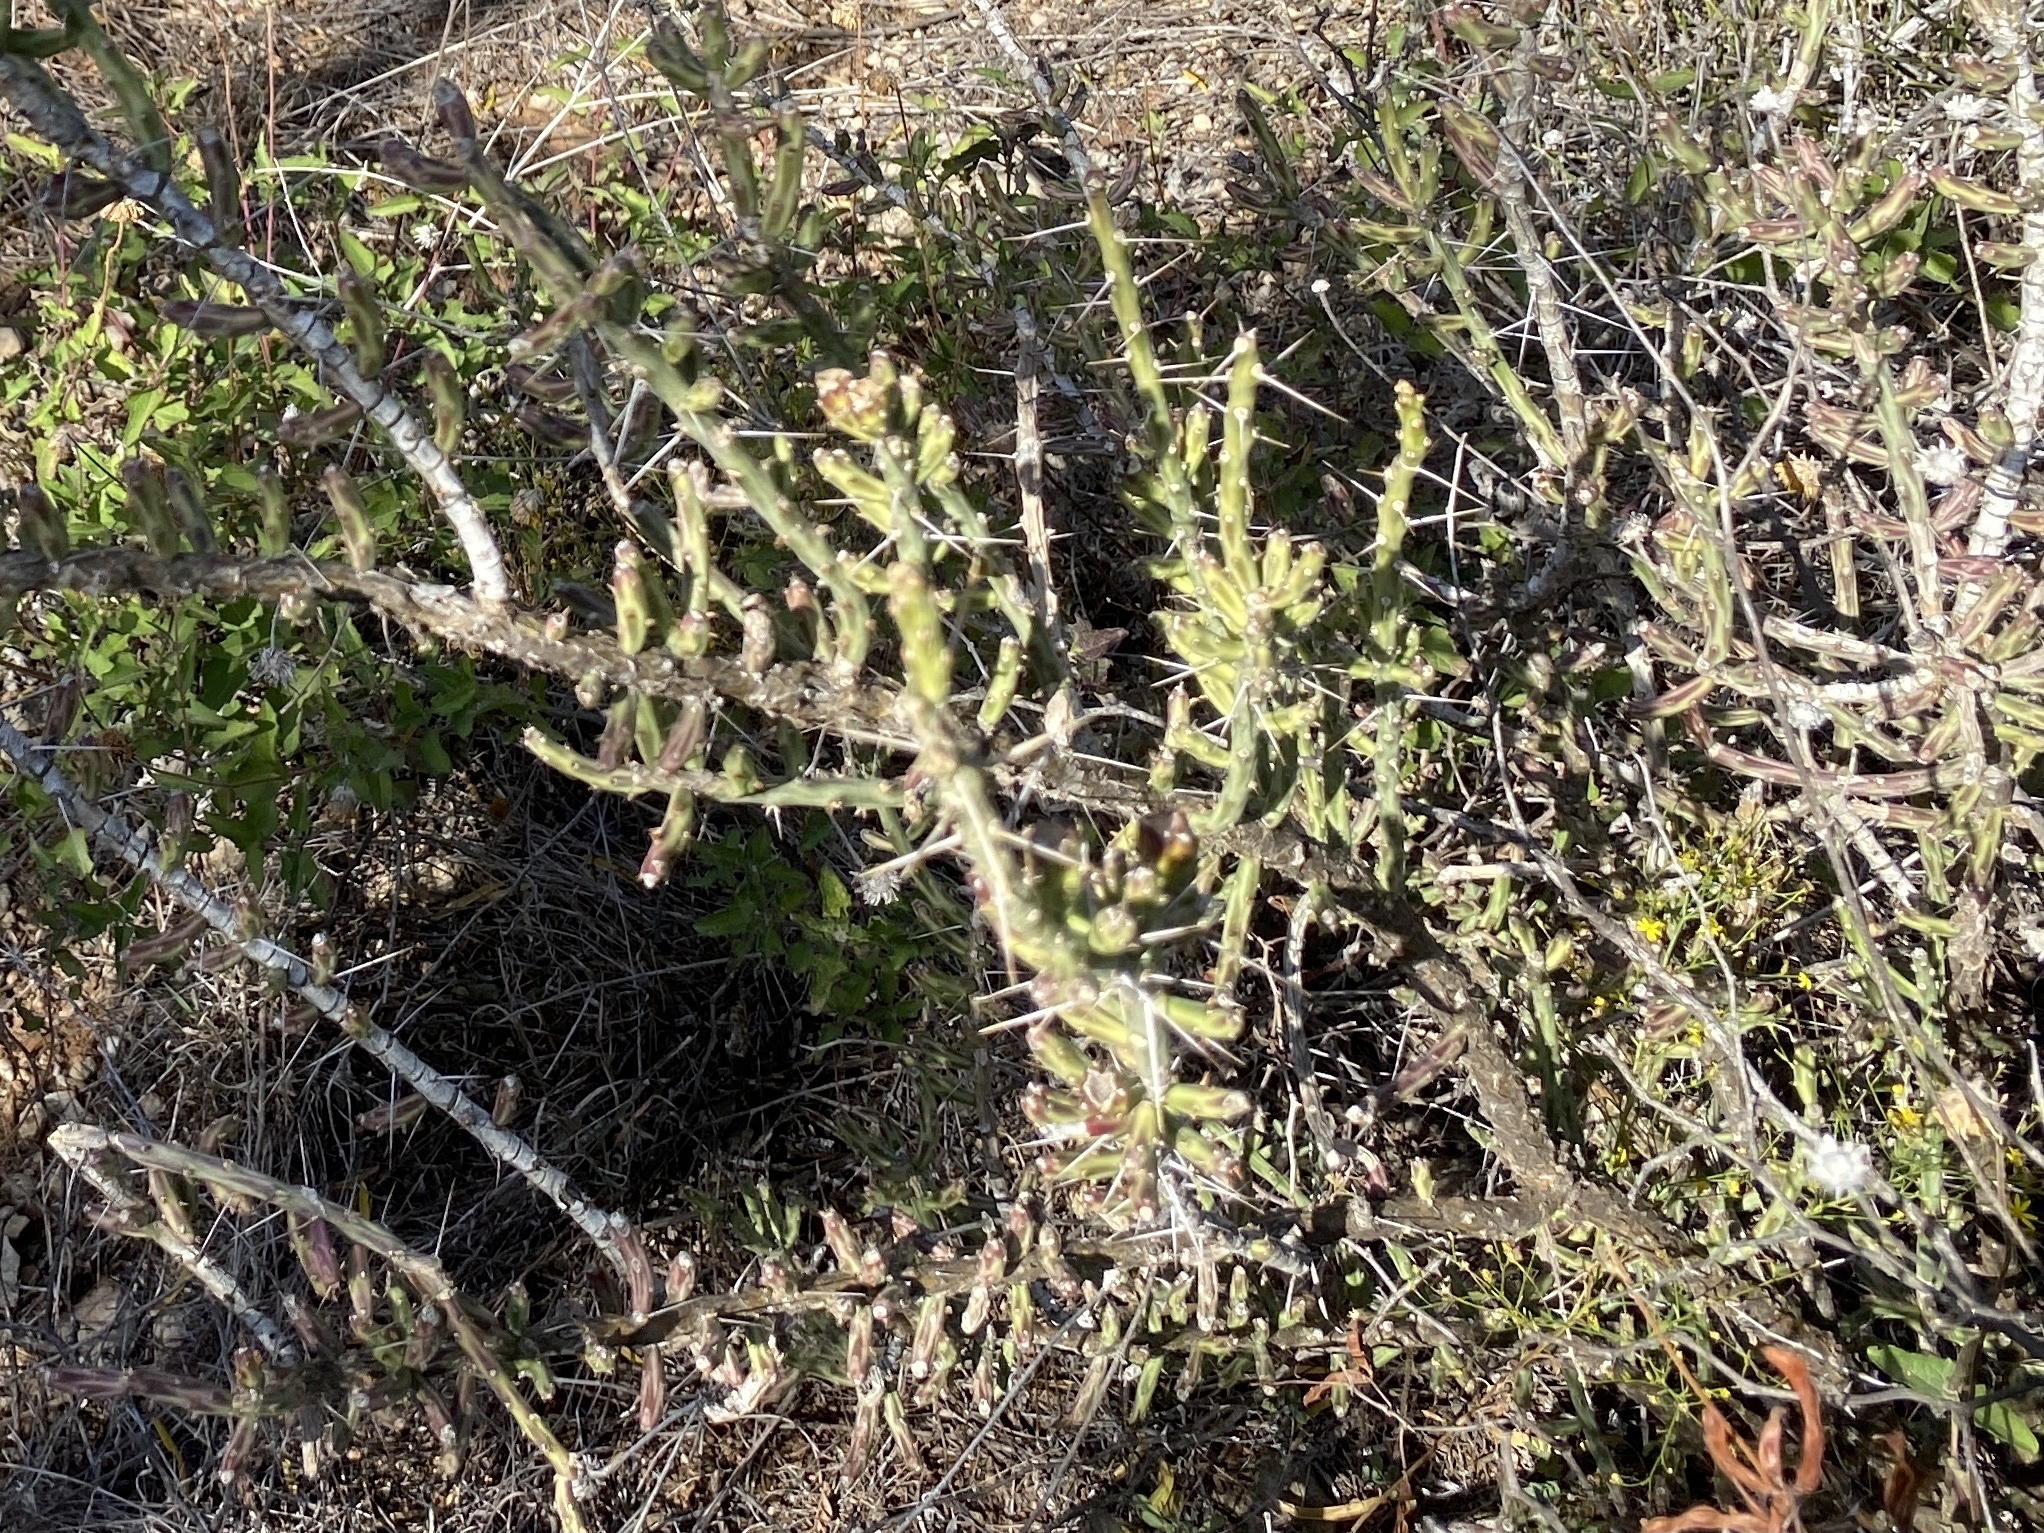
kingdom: Plantae
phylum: Tracheophyta
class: Magnoliopsida
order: Caryophyllales
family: Cactaceae
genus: Cylindropuntia
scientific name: Cylindropuntia leptocaulis
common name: Christmas cactus
